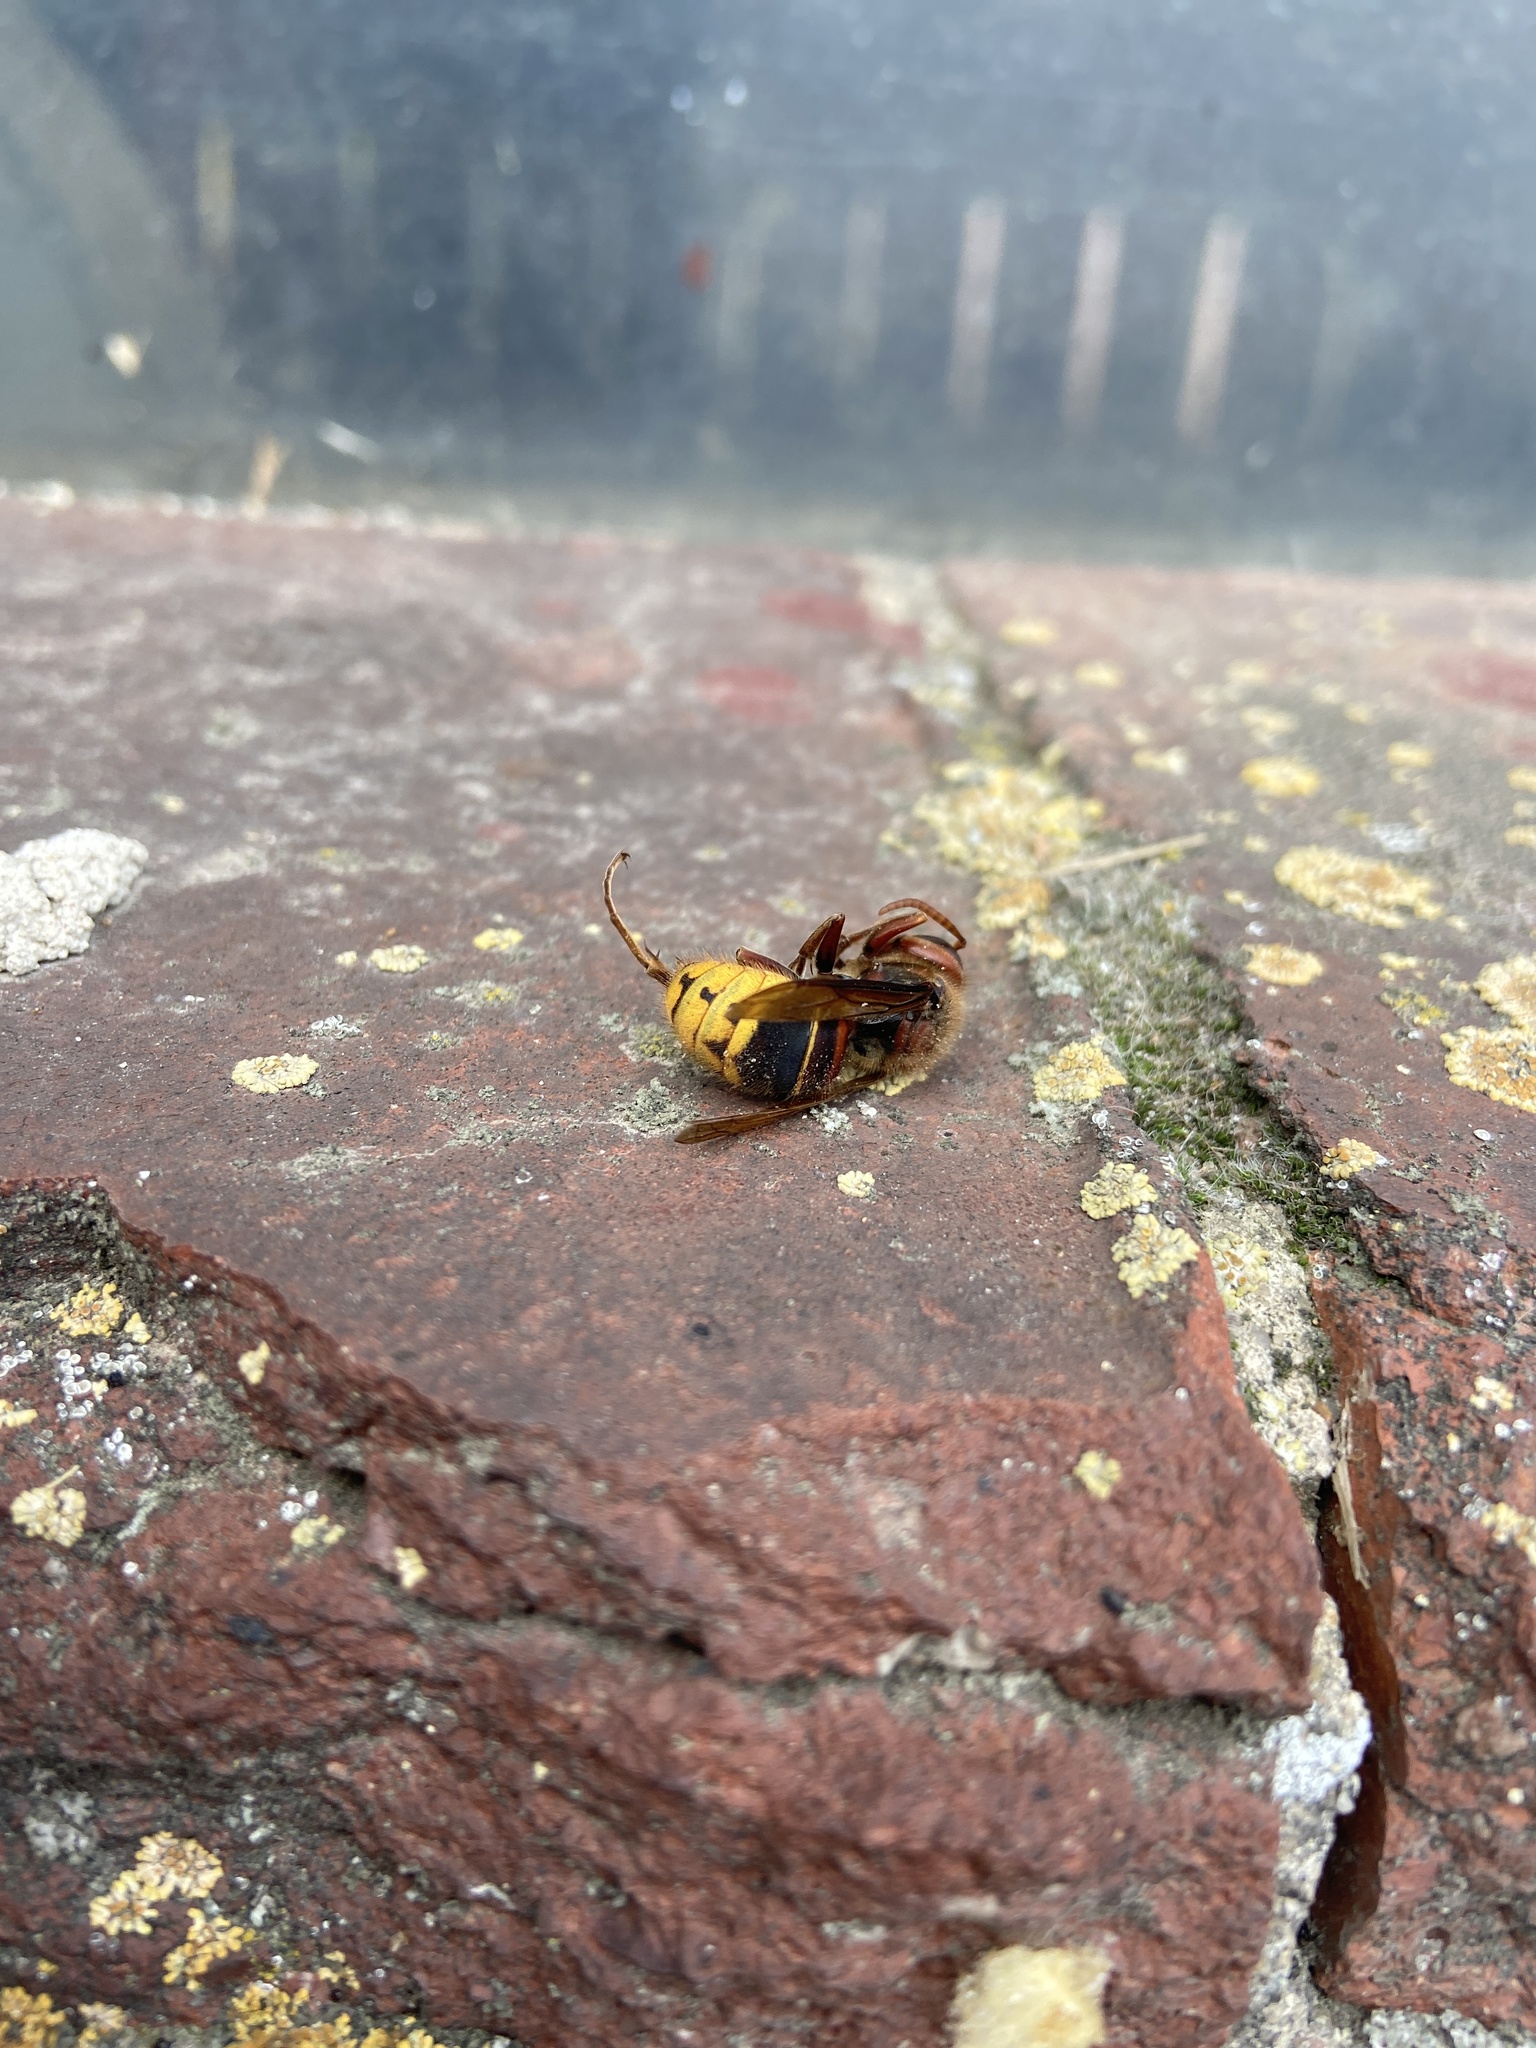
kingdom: Animalia
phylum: Arthropoda
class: Insecta
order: Hymenoptera
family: Vespidae
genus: Vespa
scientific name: Vespa crabro
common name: Hornet
